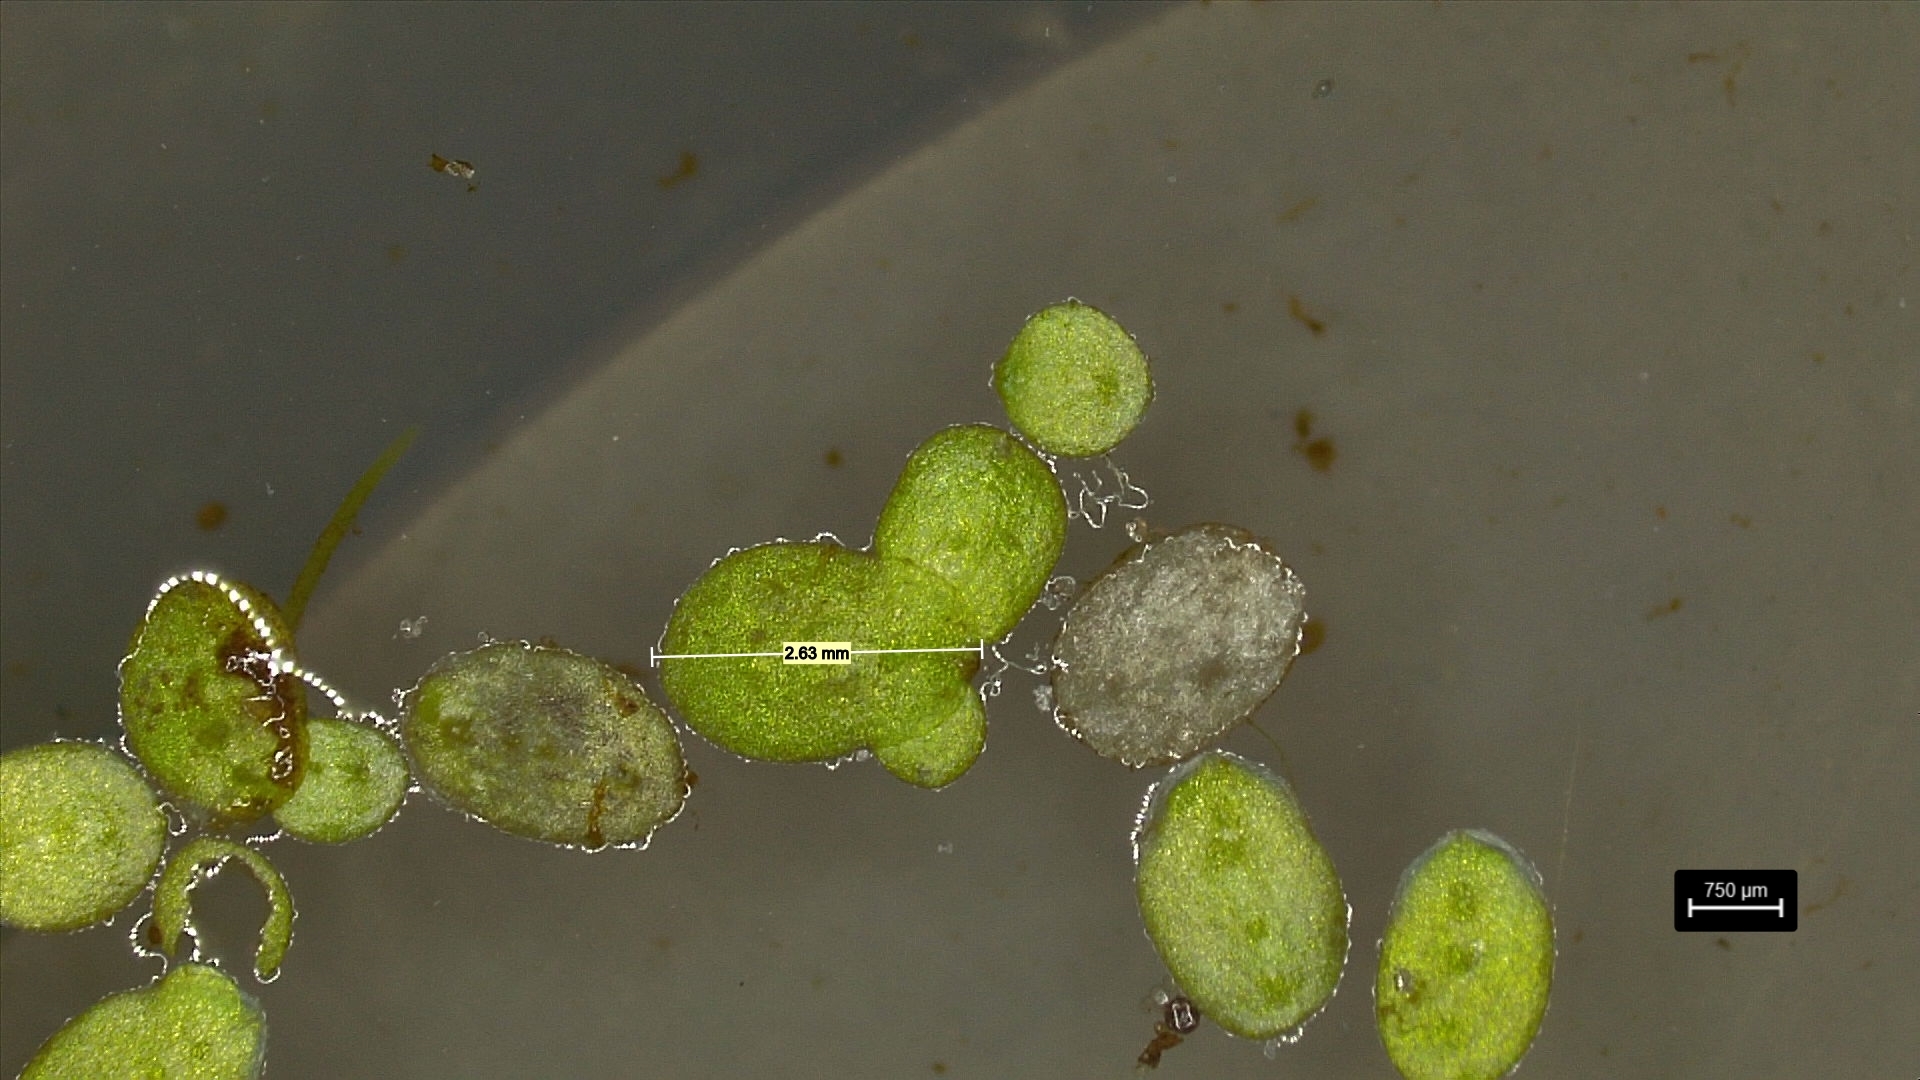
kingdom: Plantae
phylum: Tracheophyta
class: Liliopsida
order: Alismatales
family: Araceae
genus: Lemna
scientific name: Lemna minuta
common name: Least duckweed
